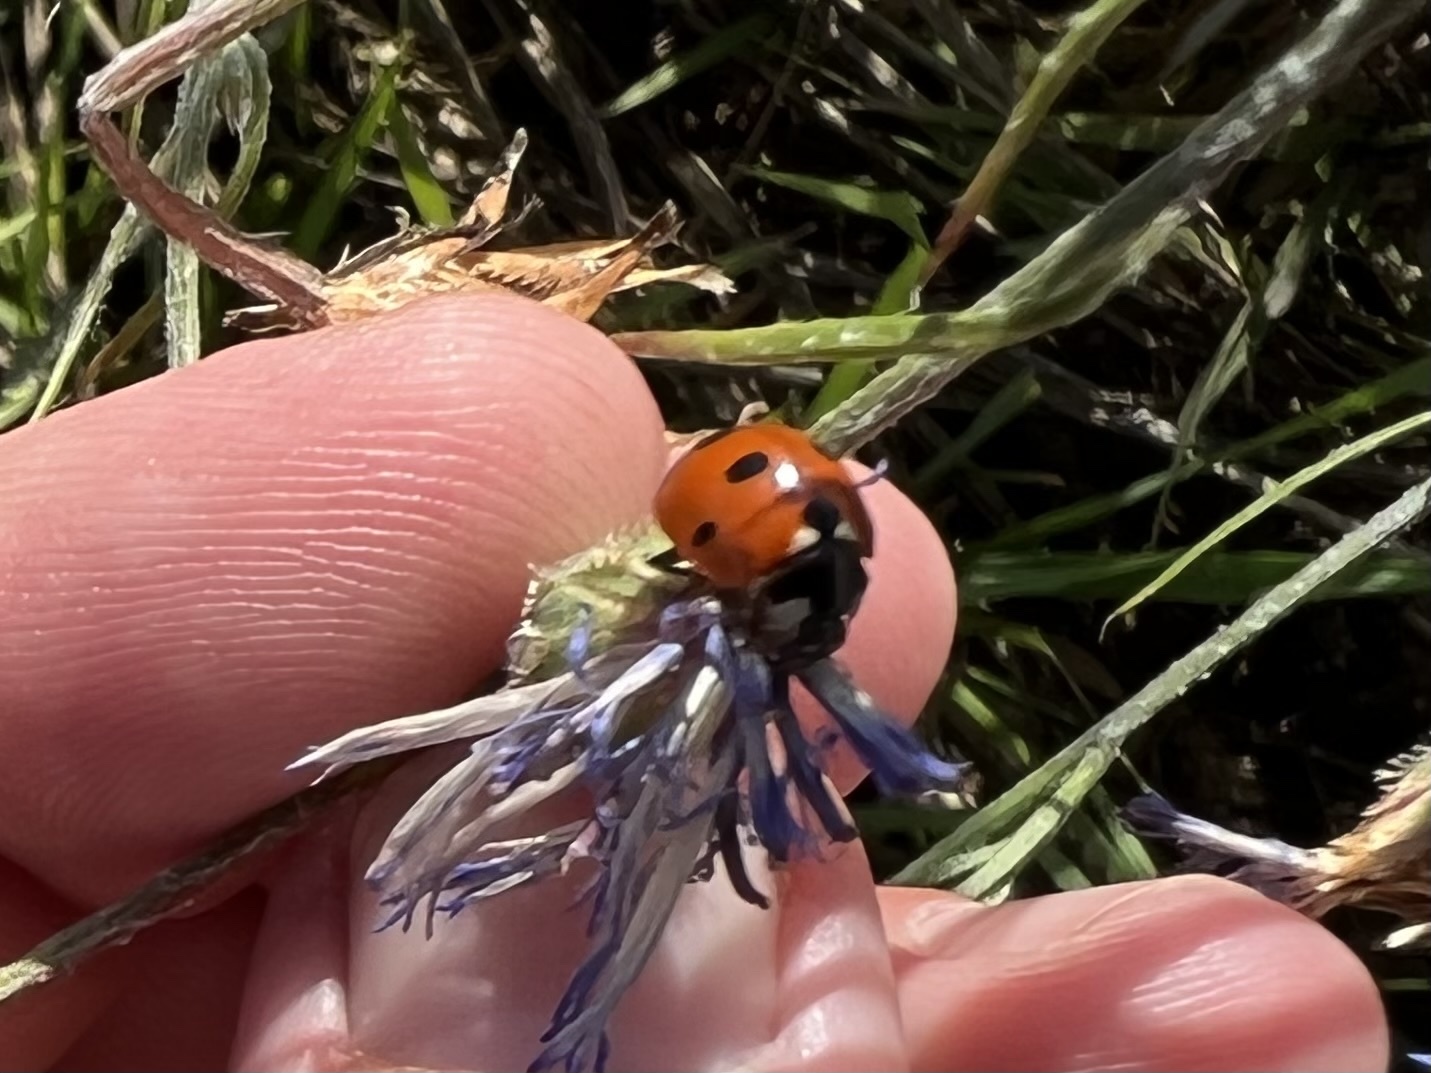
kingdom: Animalia
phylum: Arthropoda
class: Insecta
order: Coleoptera
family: Coccinellidae
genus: Coccinella
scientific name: Coccinella septempunctata
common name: Sevenspotted lady beetle
